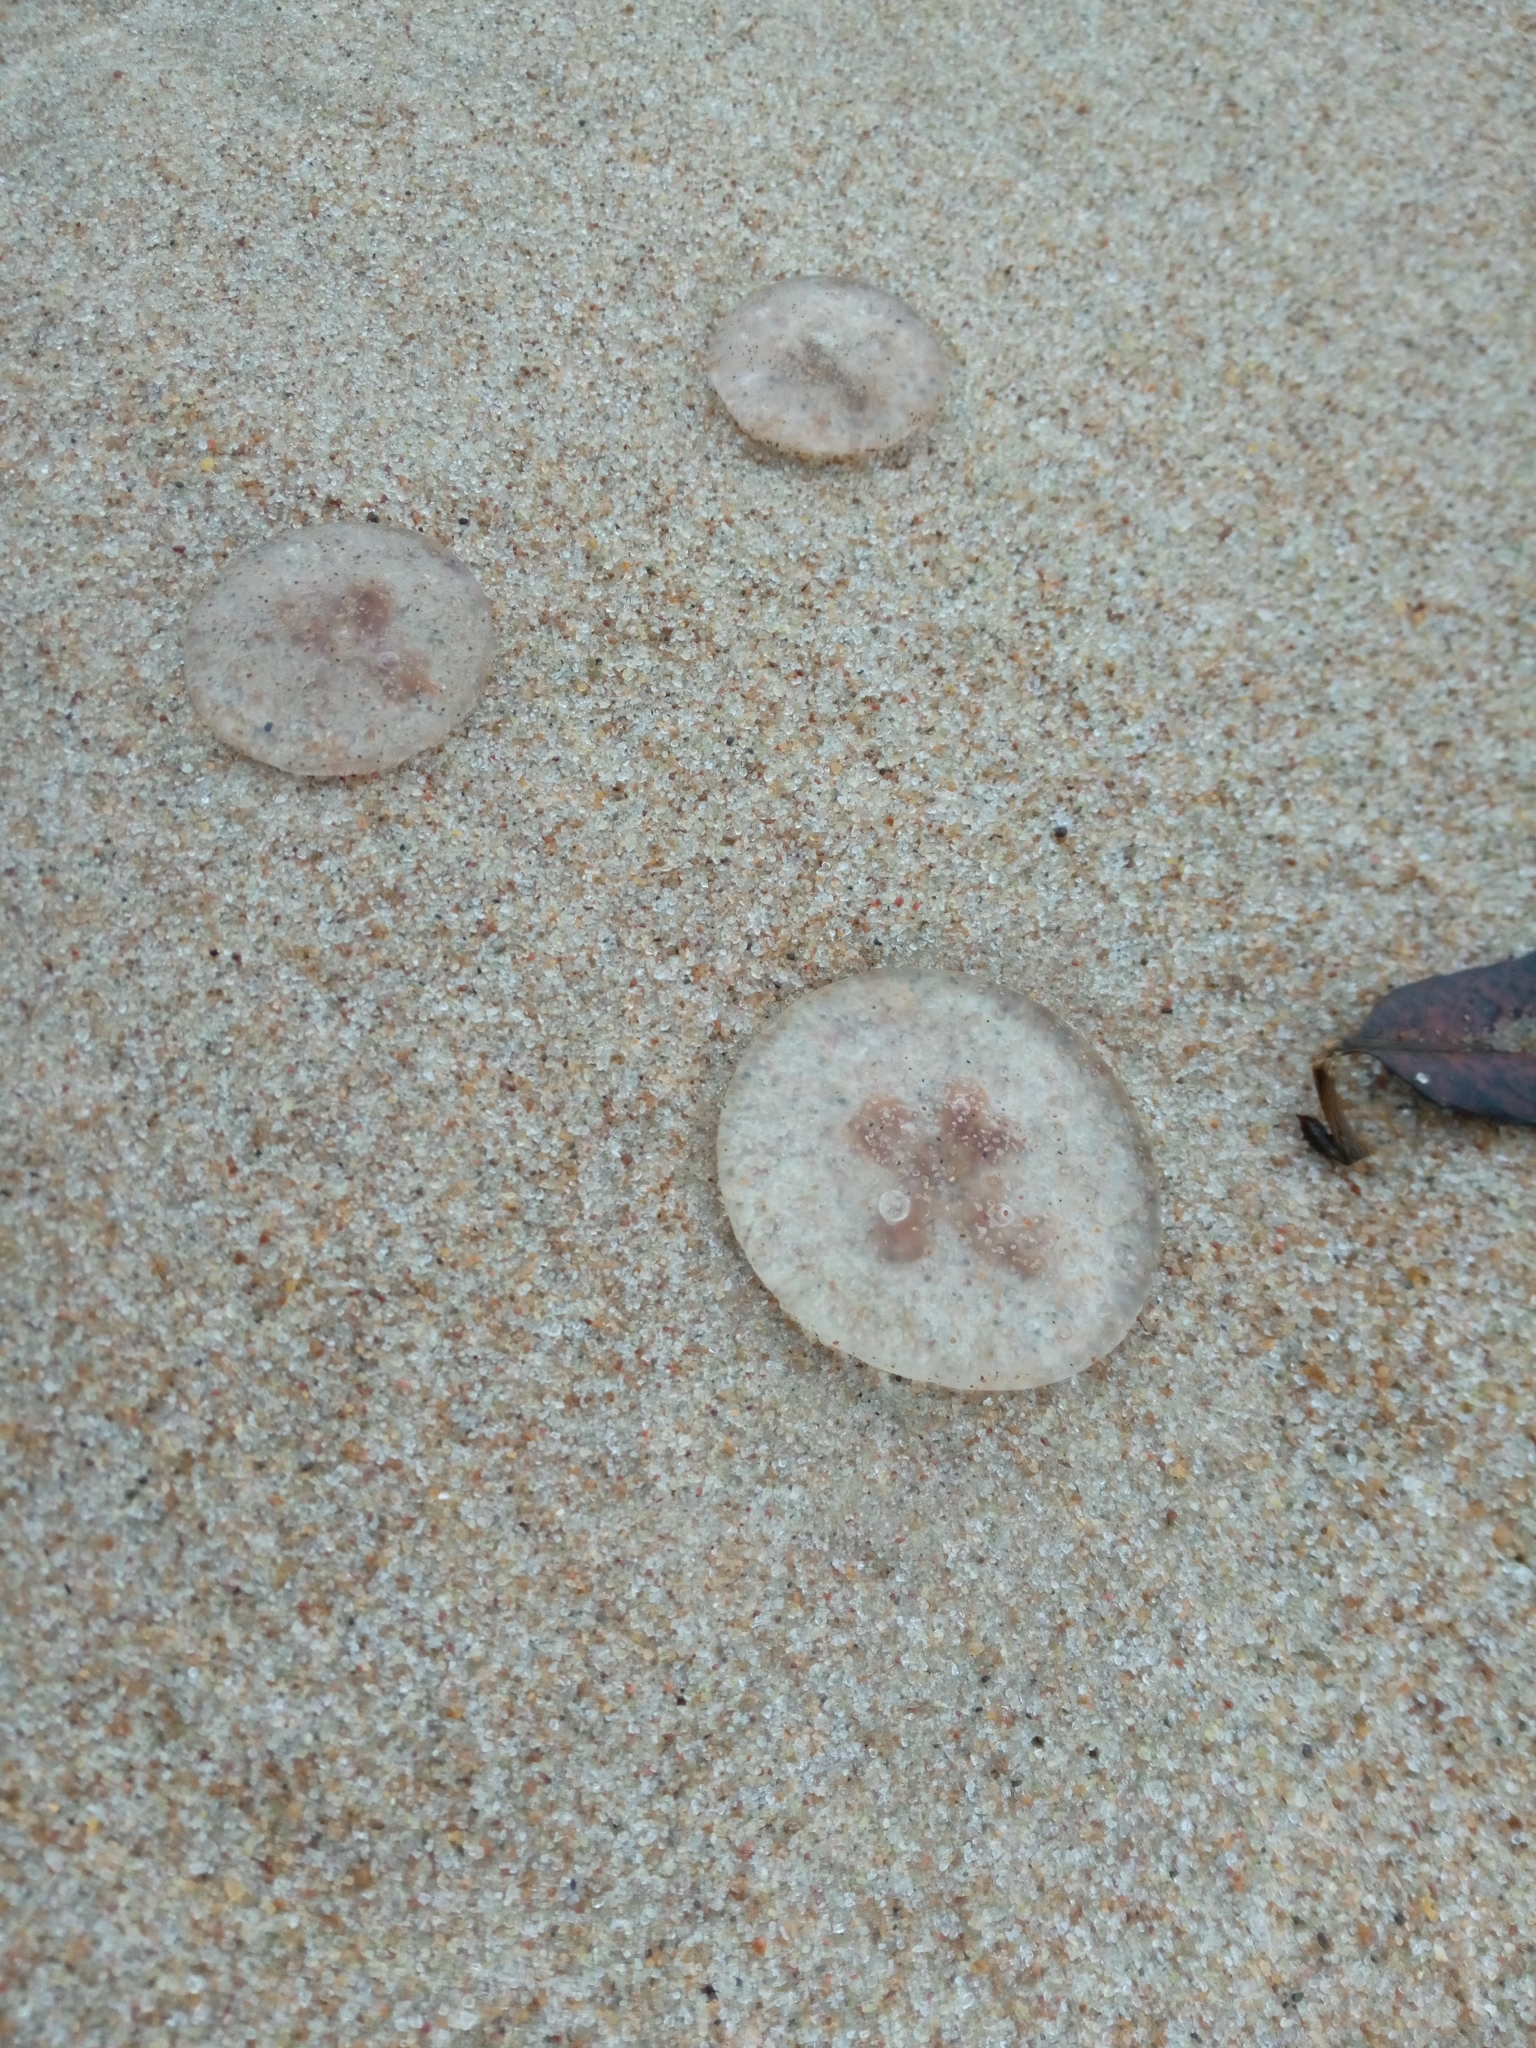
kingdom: Animalia
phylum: Cnidaria
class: Scyphozoa
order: Semaeostomeae
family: Ulmaridae
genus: Aurelia
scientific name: Aurelia aurita
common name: Moon jellyfish
